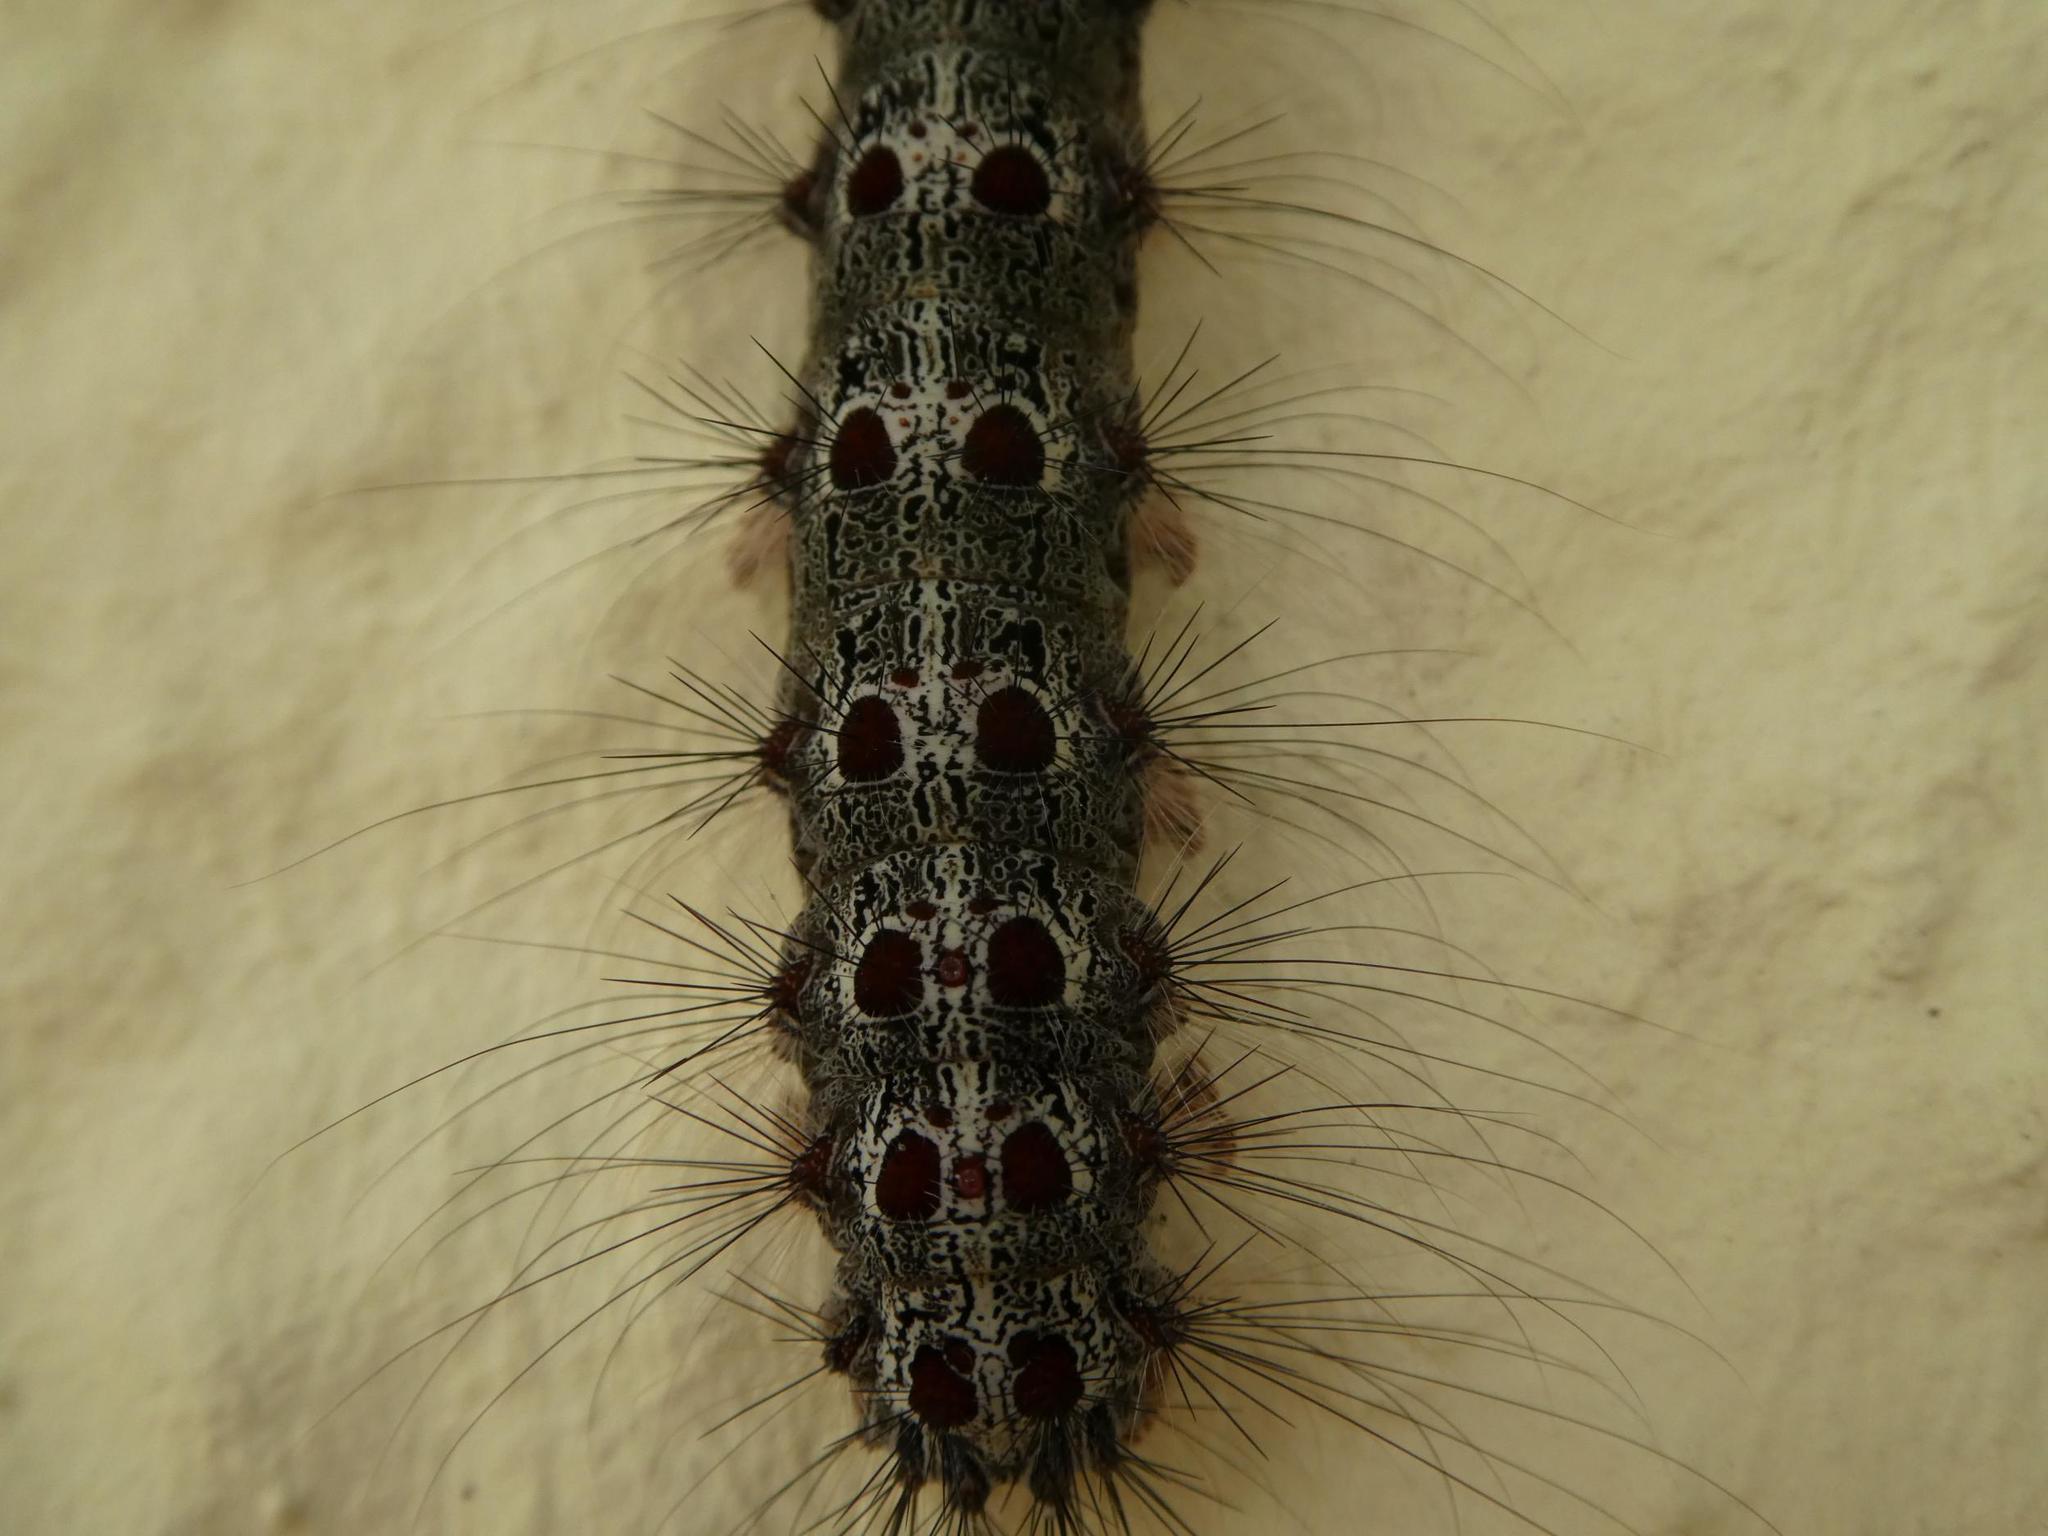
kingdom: Animalia
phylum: Arthropoda
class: Insecta
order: Lepidoptera
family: Erebidae
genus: Lymantria
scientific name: Lymantria dispar
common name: Gypsy moth
